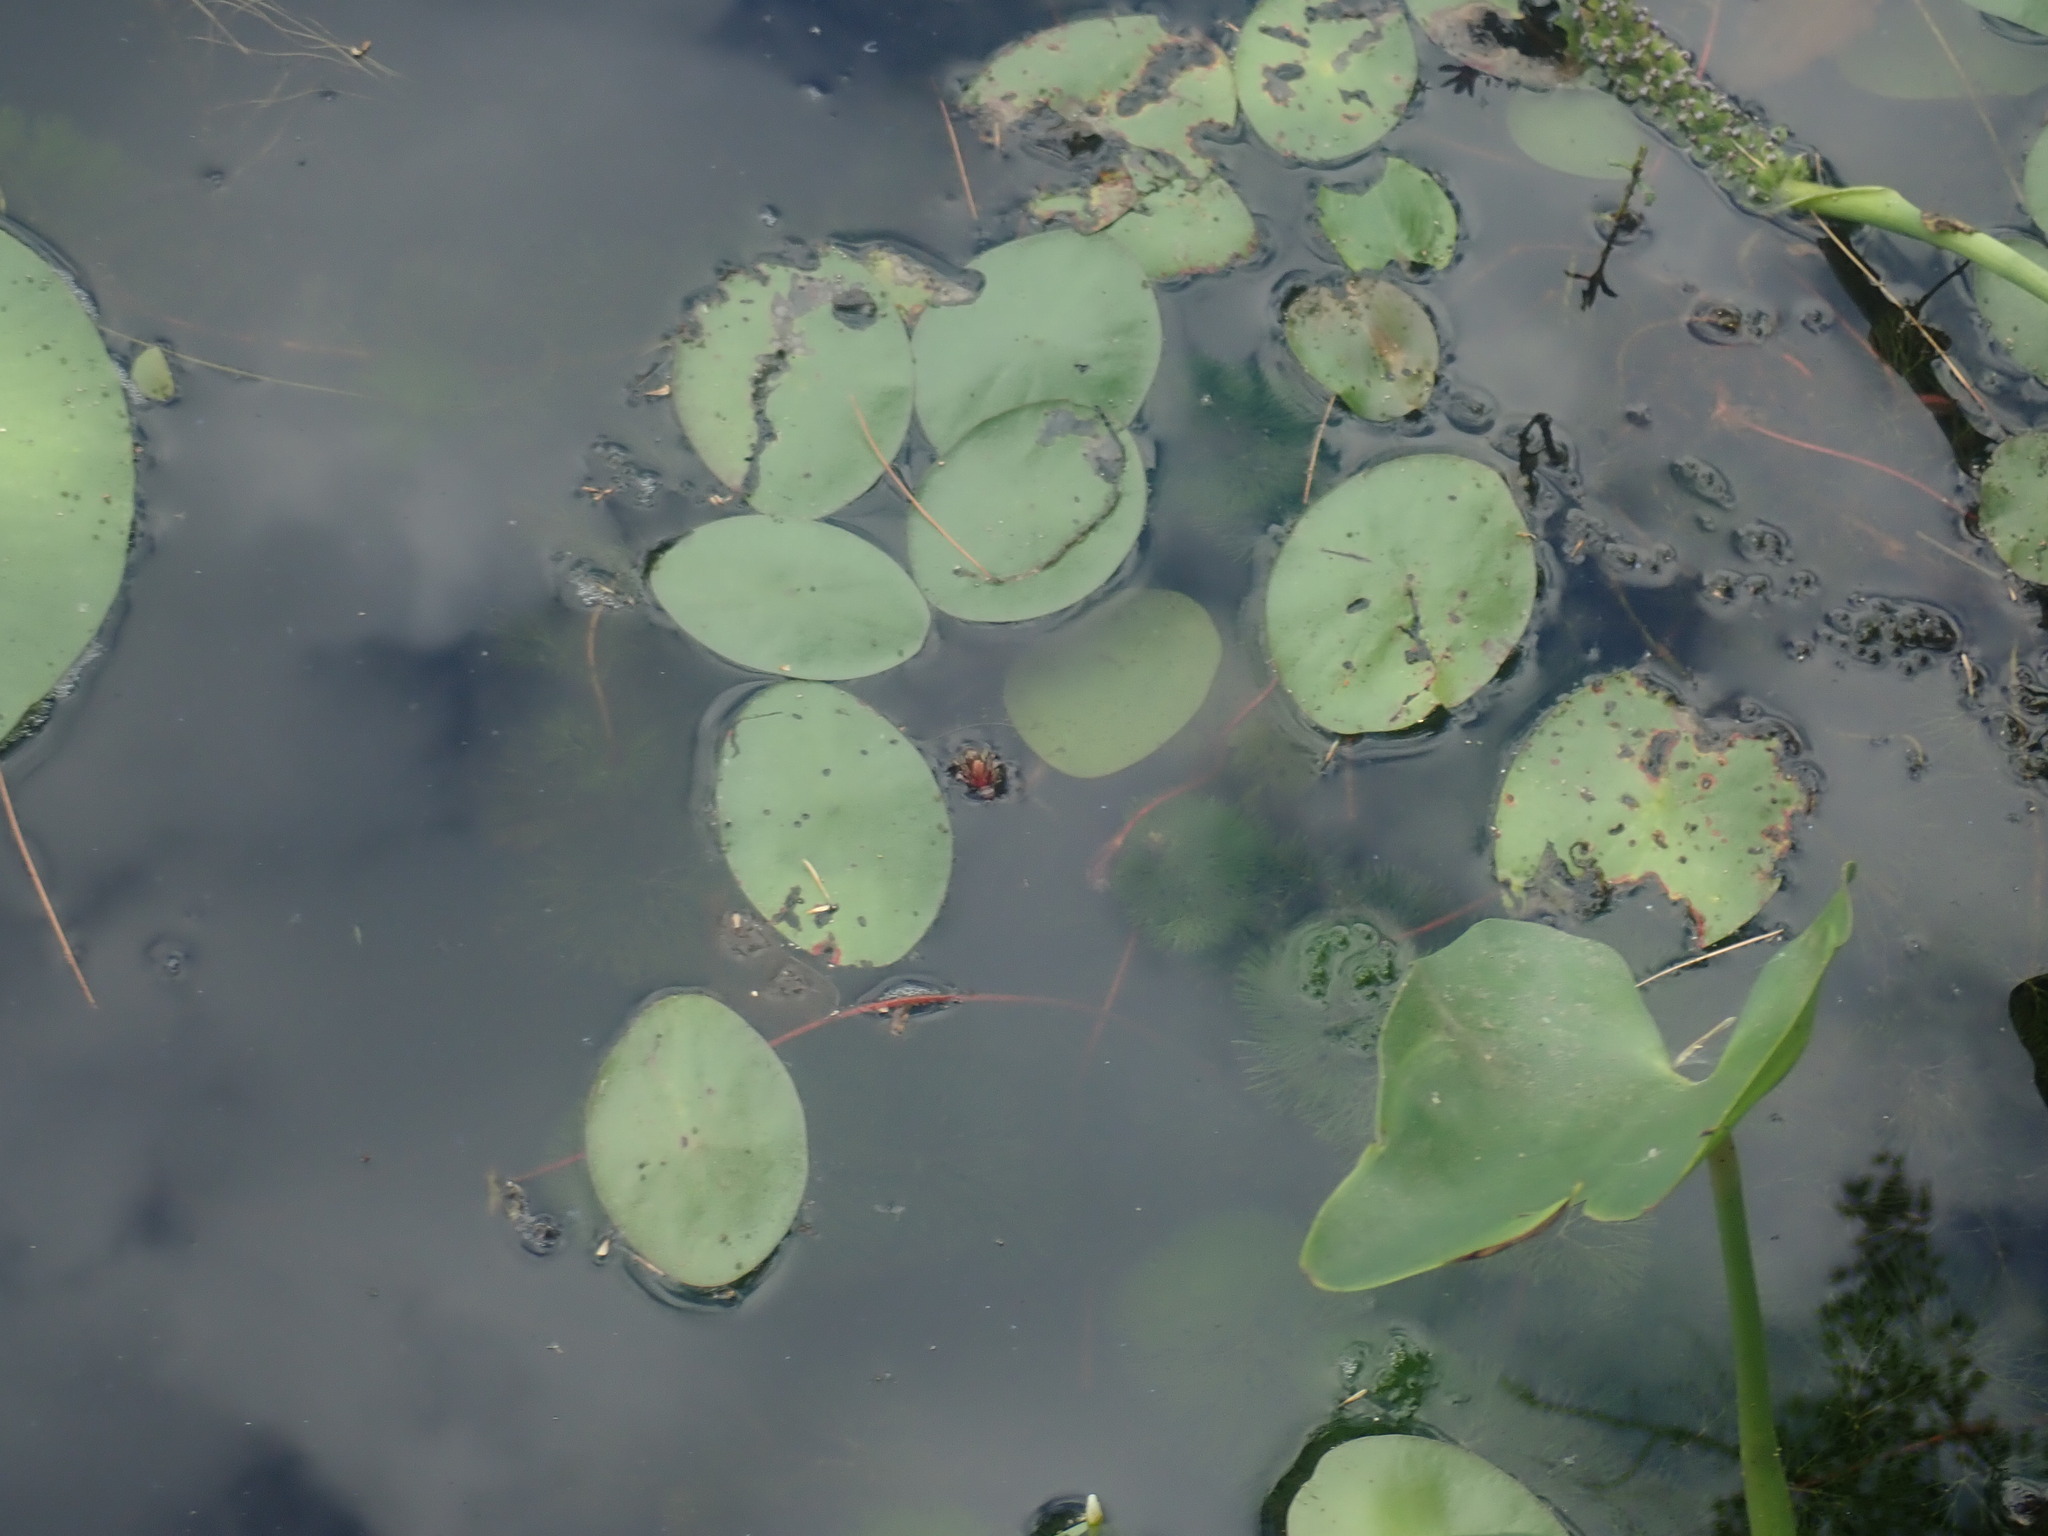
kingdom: Plantae
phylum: Tracheophyta
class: Magnoliopsida
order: Nymphaeales
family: Cabombaceae
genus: Brasenia
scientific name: Brasenia schreberi
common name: Water-shield
